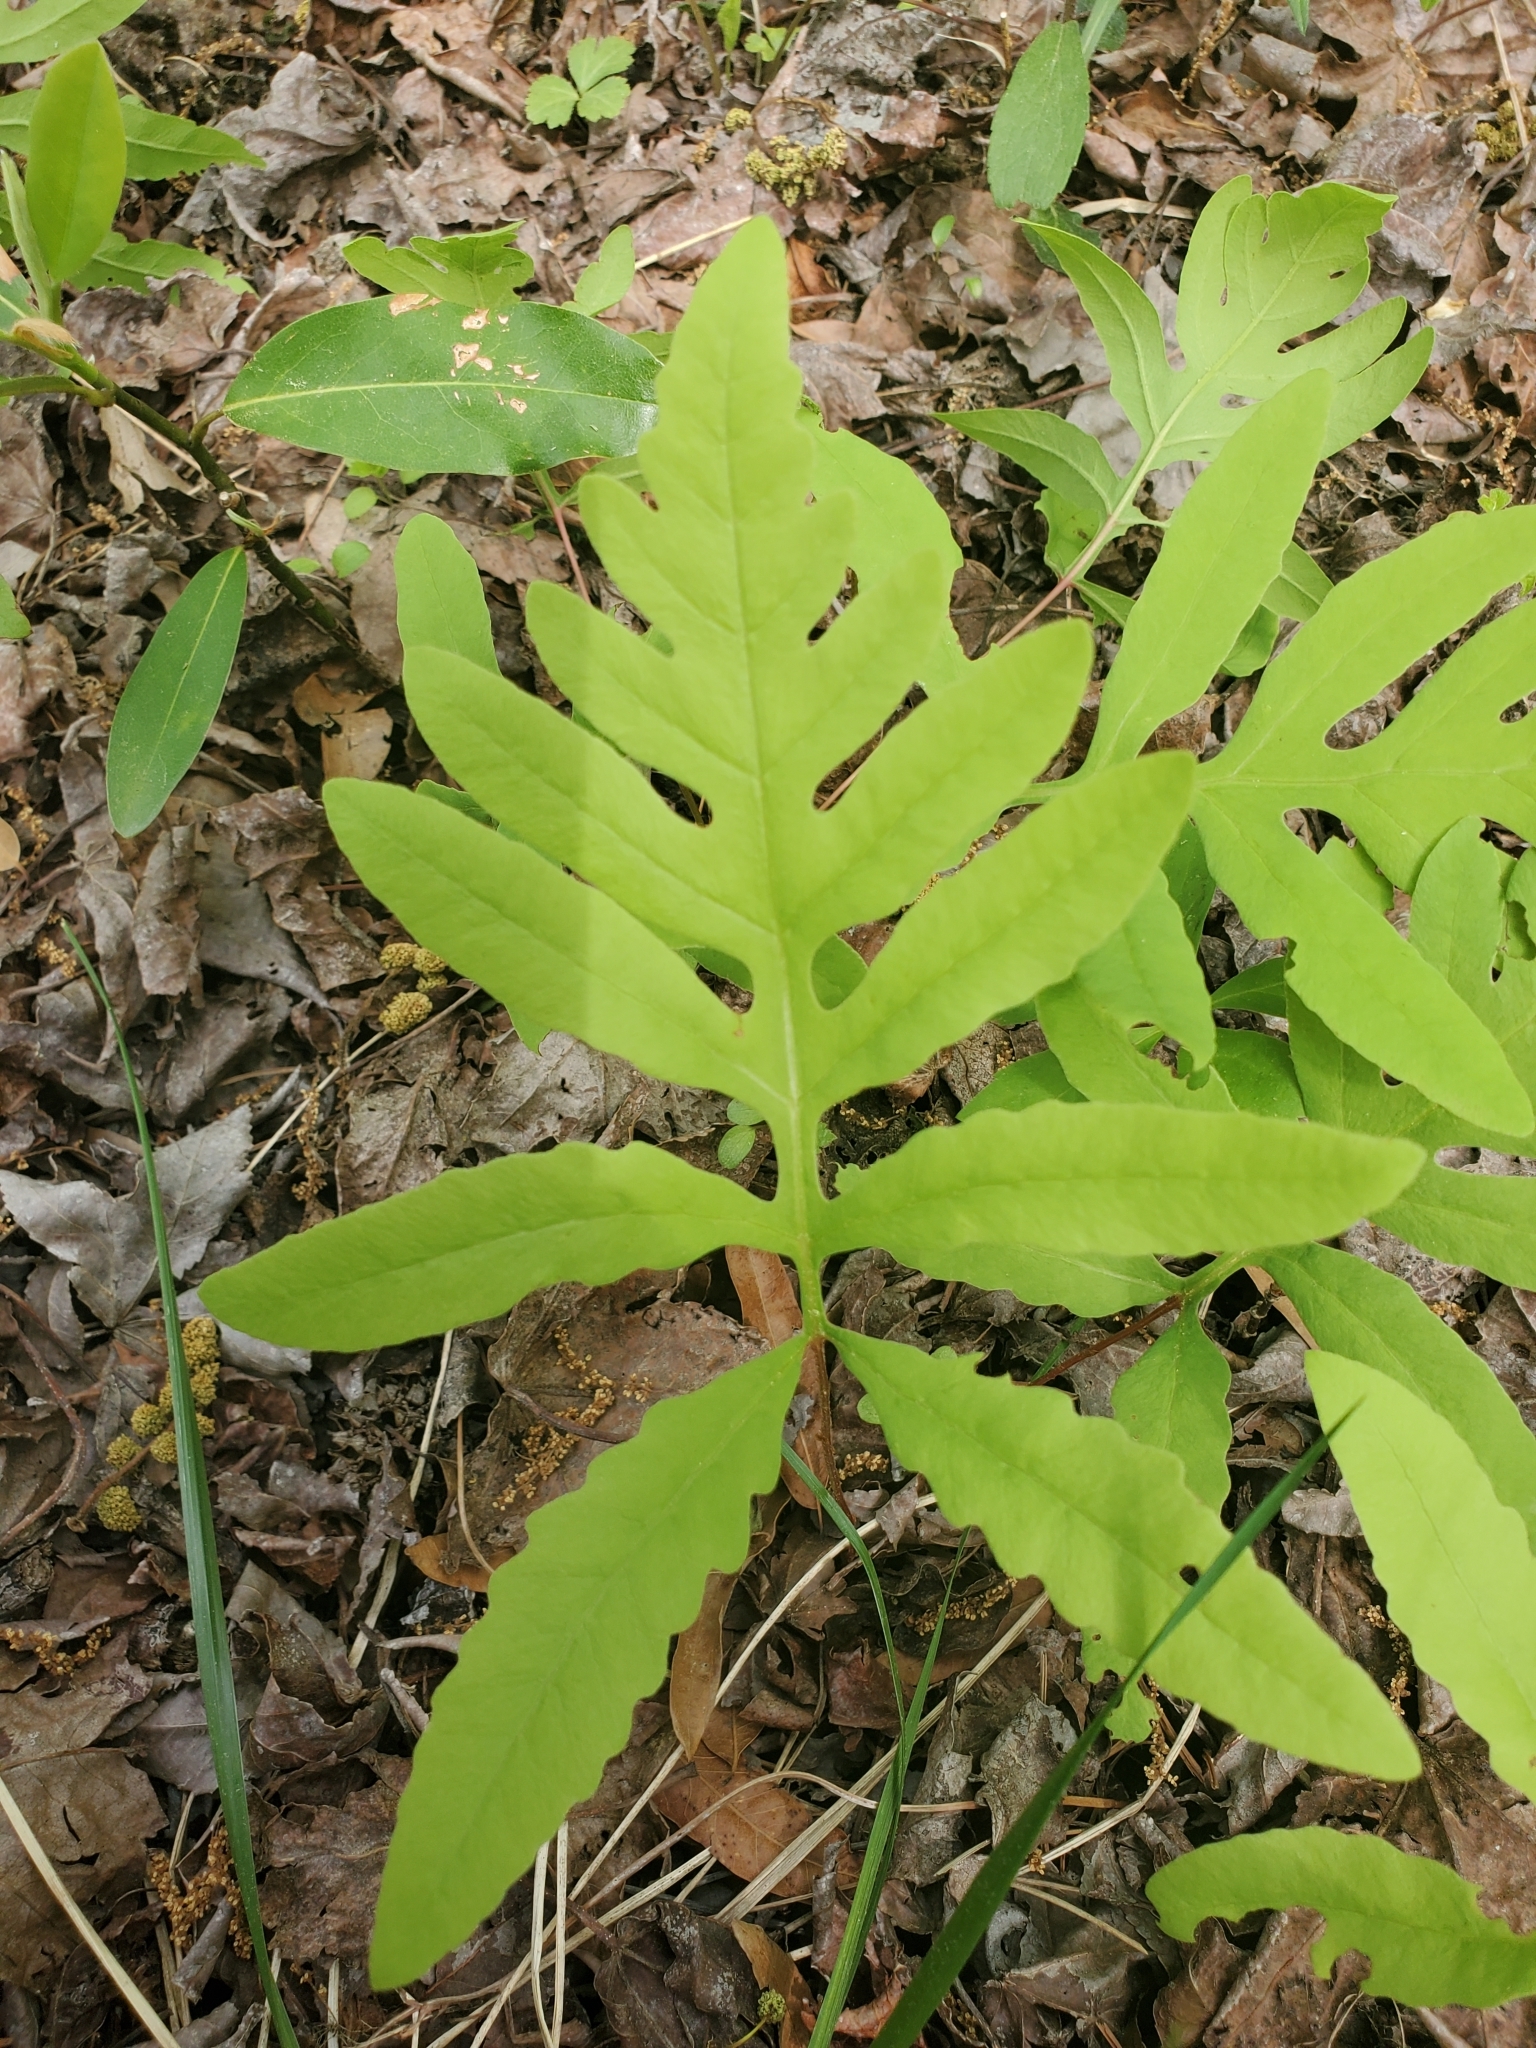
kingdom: Plantae
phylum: Tracheophyta
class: Polypodiopsida
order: Polypodiales
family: Onocleaceae
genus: Onoclea
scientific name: Onoclea sensibilis
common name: Sensitive fern
